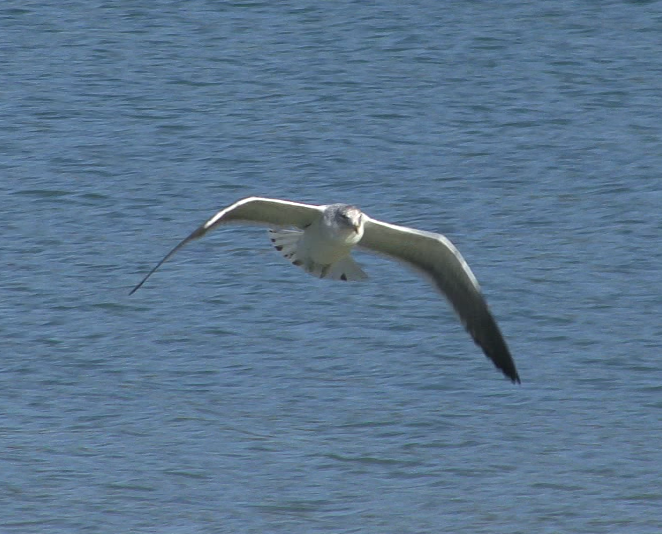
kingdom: Animalia
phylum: Chordata
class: Aves
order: Charadriiformes
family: Laridae
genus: Larus
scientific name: Larus dominicanus
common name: Kelp gull
